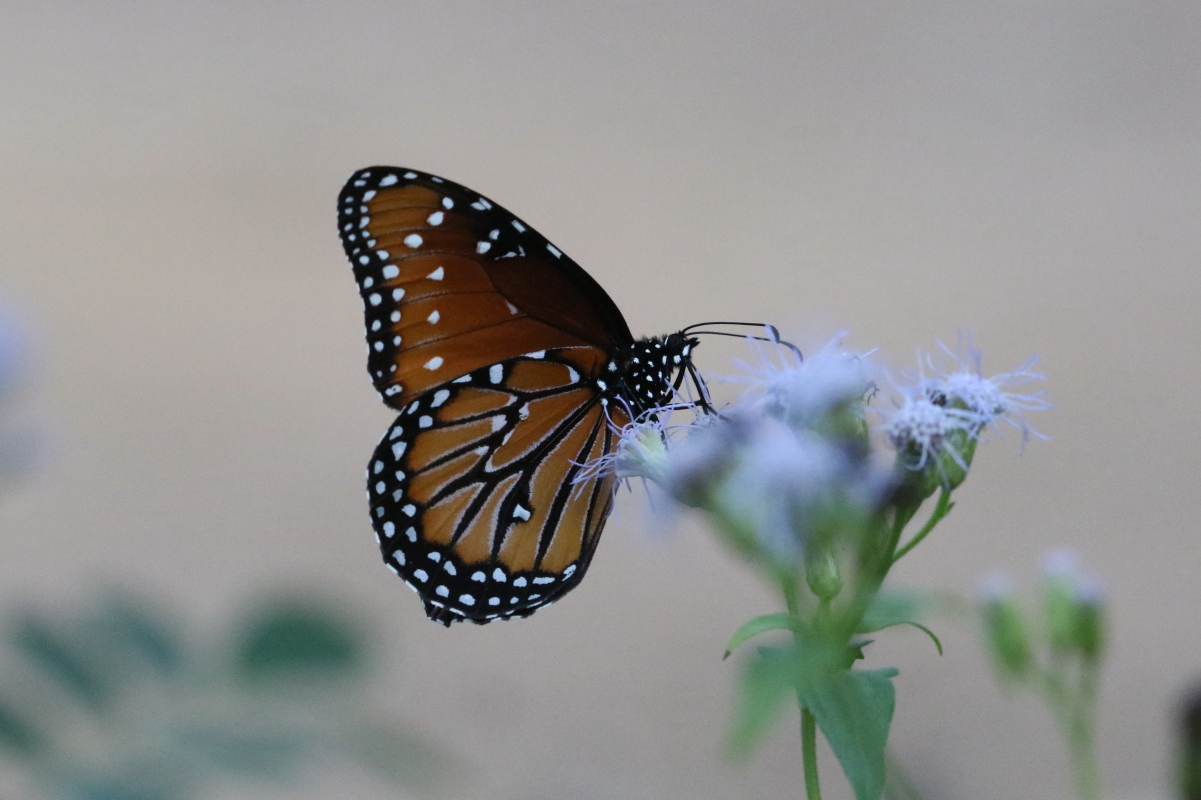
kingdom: Animalia
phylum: Arthropoda
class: Insecta
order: Lepidoptera
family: Nymphalidae
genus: Danaus
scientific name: Danaus gilippus
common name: Queen
